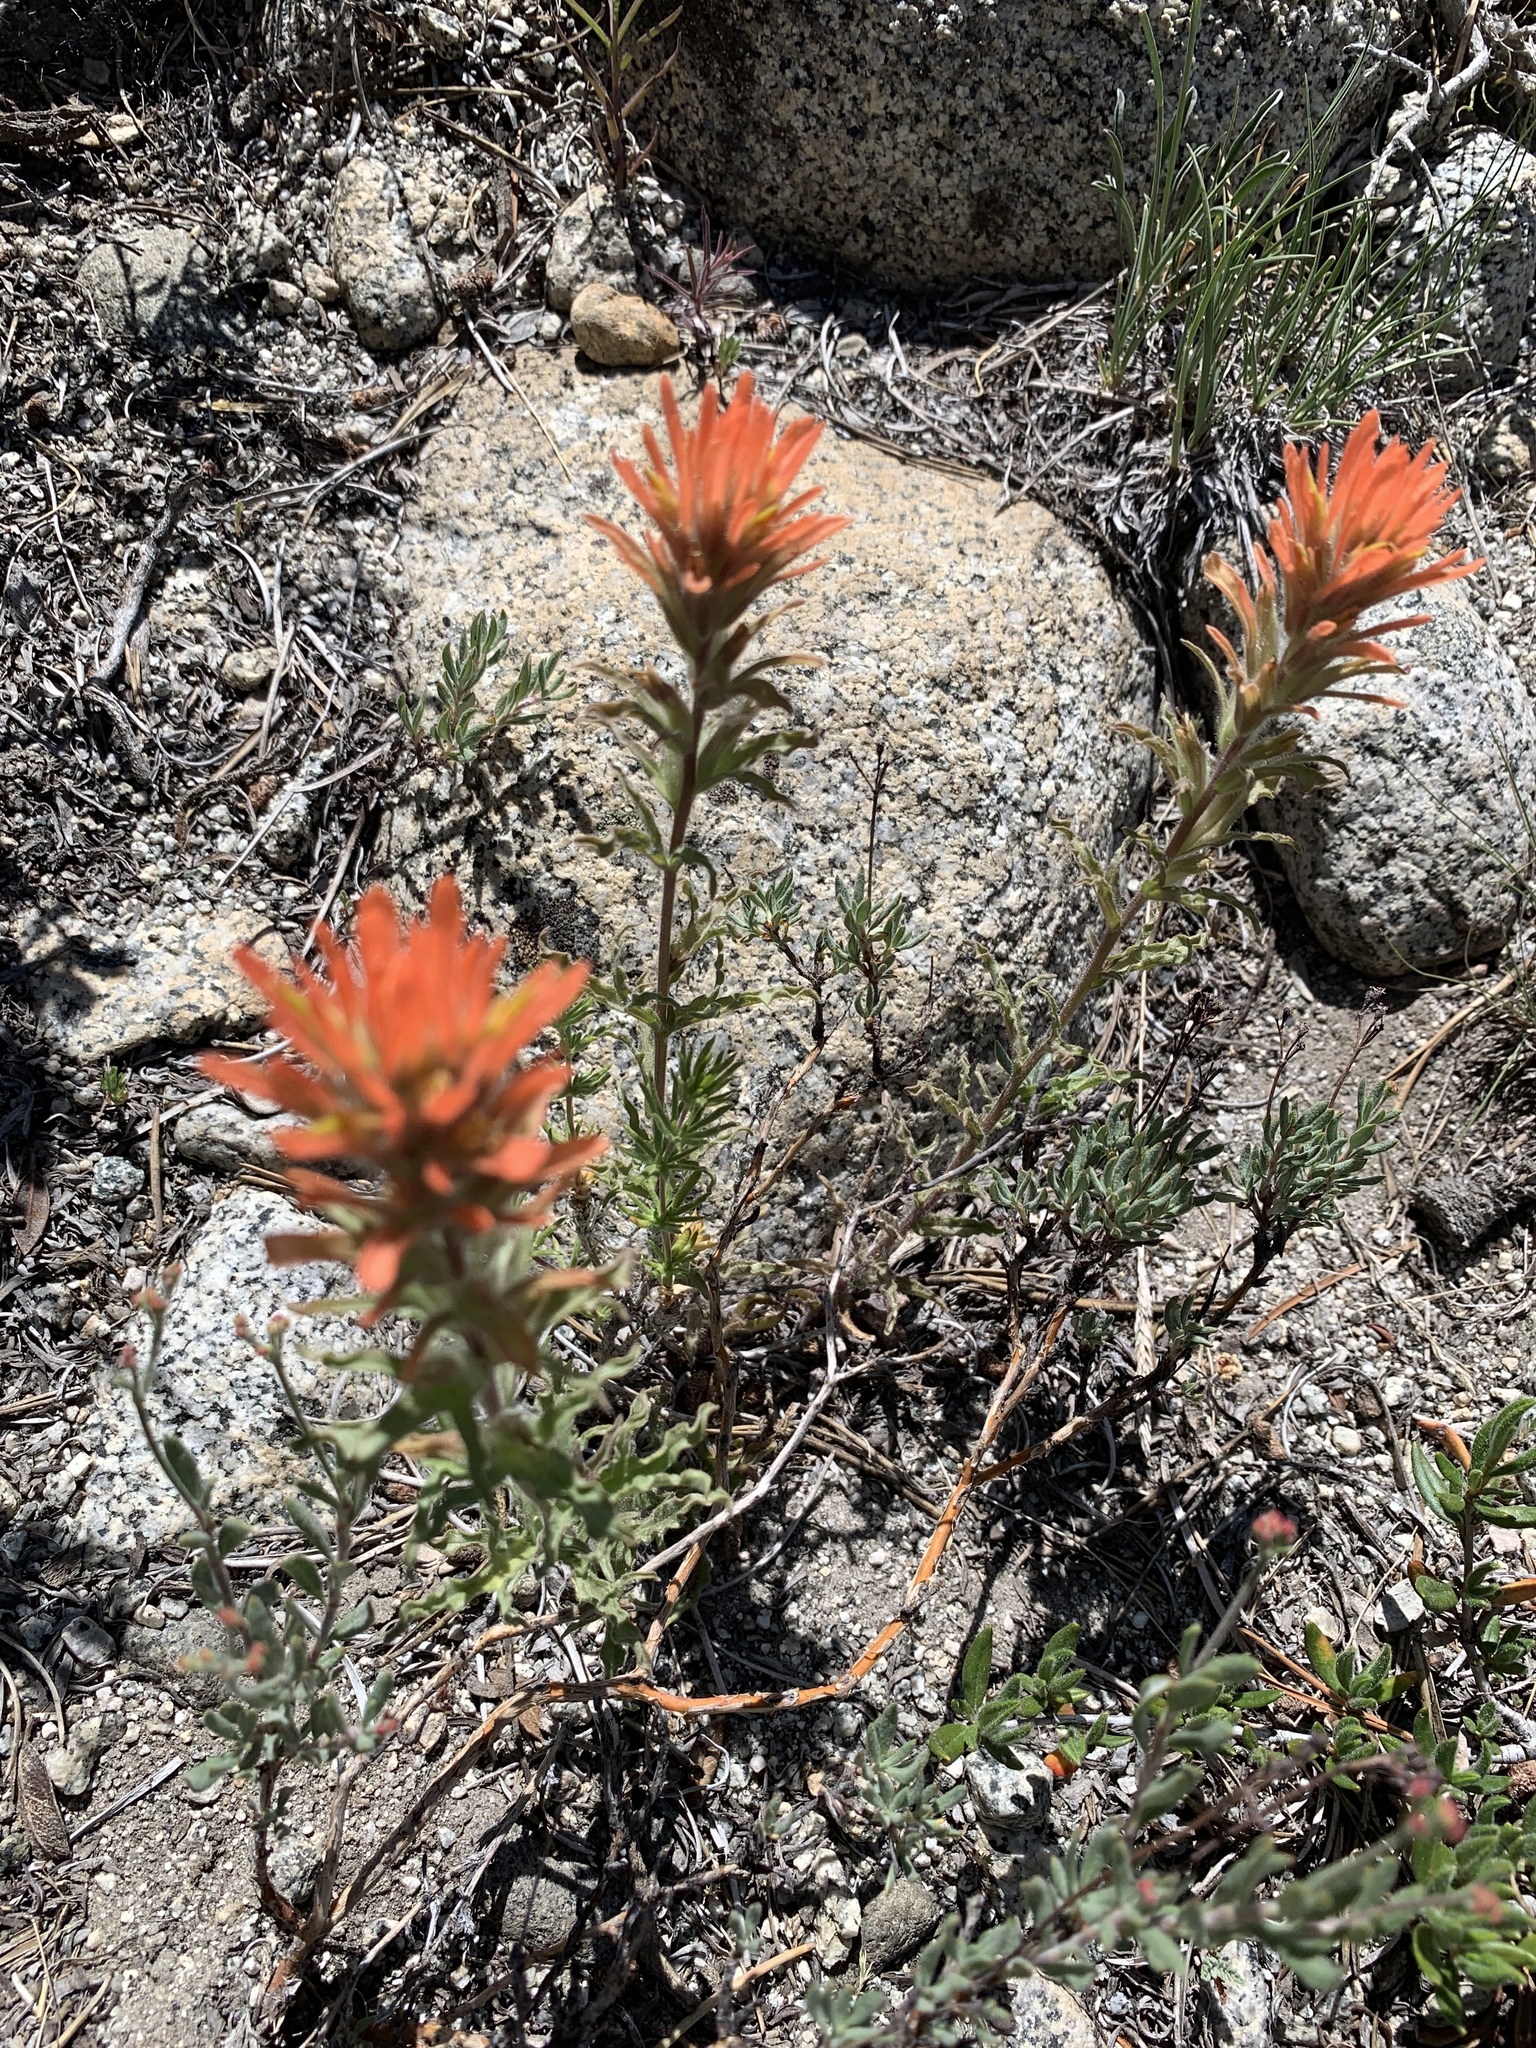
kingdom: Plantae
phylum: Tracheophyta
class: Magnoliopsida
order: Lamiales
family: Orobanchaceae
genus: Castilleja
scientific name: Castilleja applegatei
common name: Wavy-leaf paintbrush
